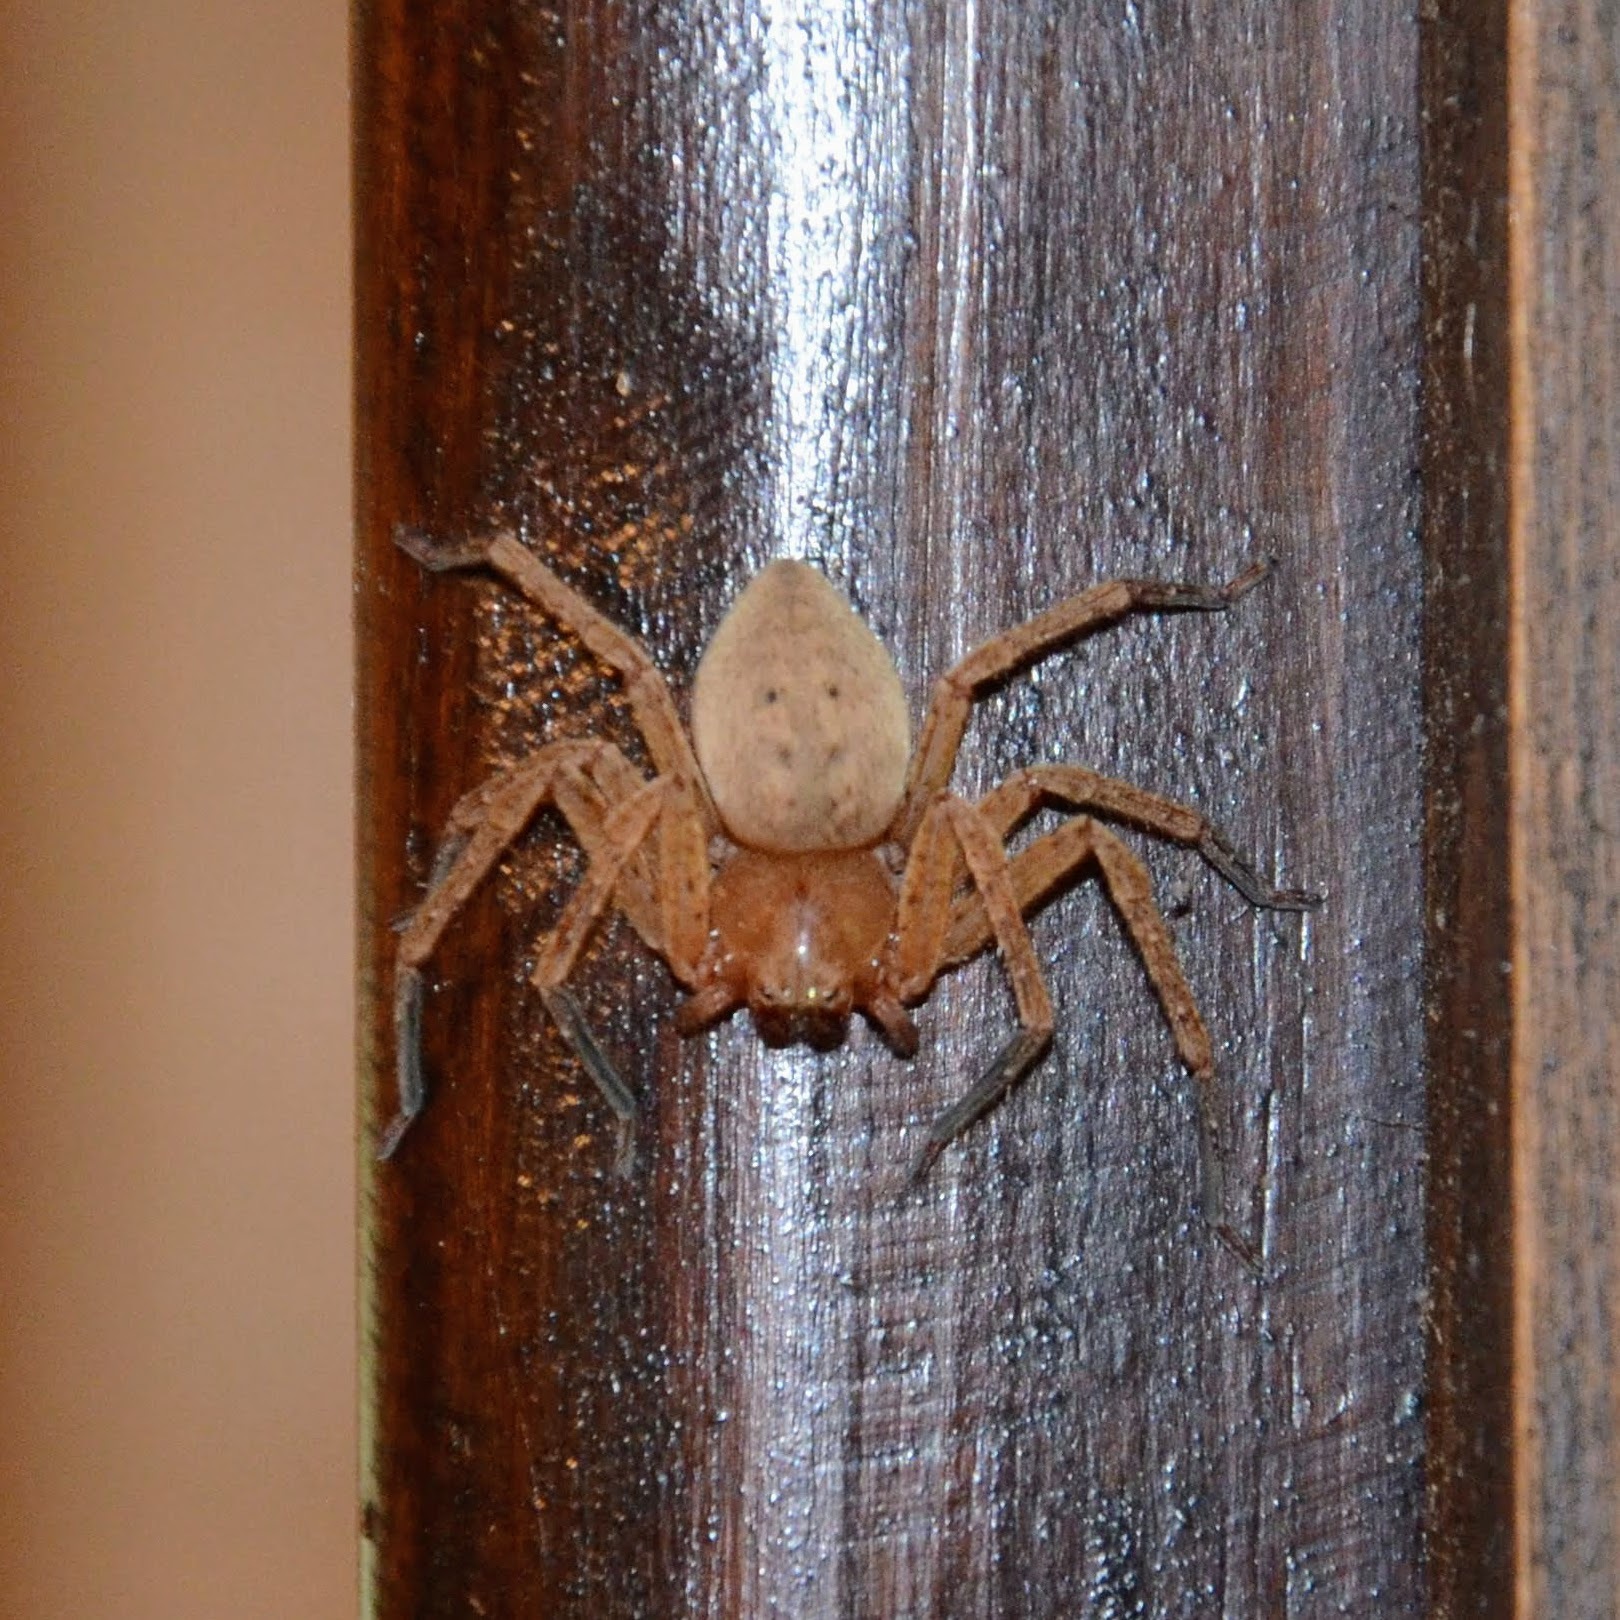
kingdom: Animalia
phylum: Arthropoda
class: Arachnida
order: Araneae
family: Sparassidae
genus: Olios
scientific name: Olios argelasius
